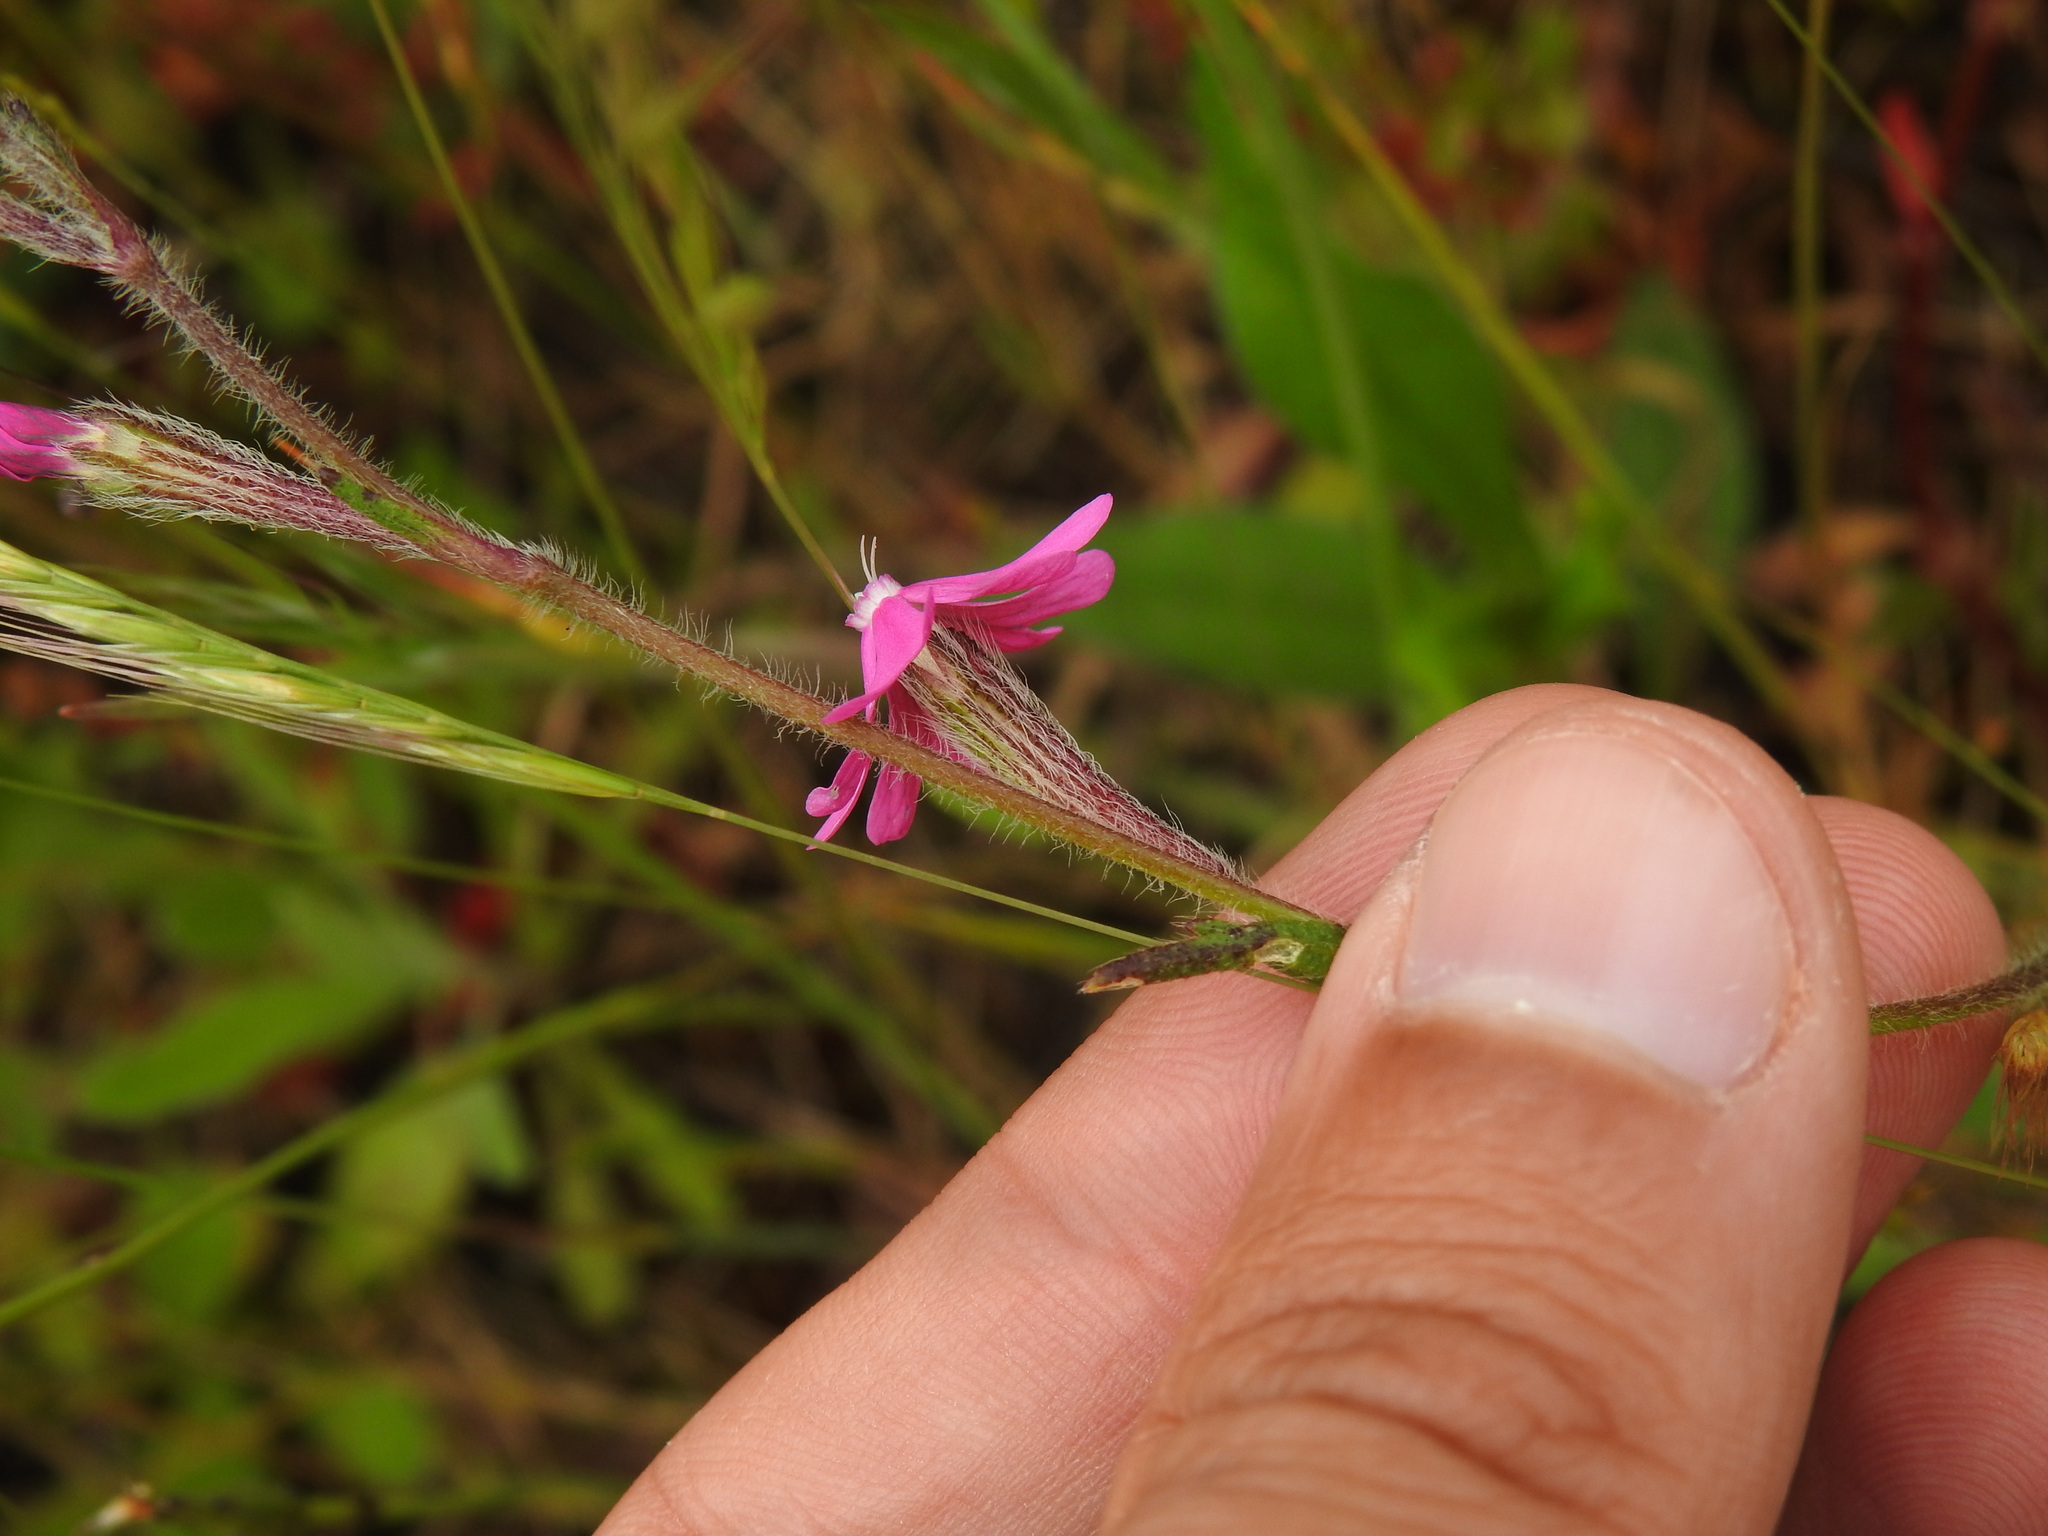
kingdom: Plantae
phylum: Tracheophyta
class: Magnoliopsida
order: Caryophyllales
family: Caryophyllaceae
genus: Silene
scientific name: Silene scabriflora
